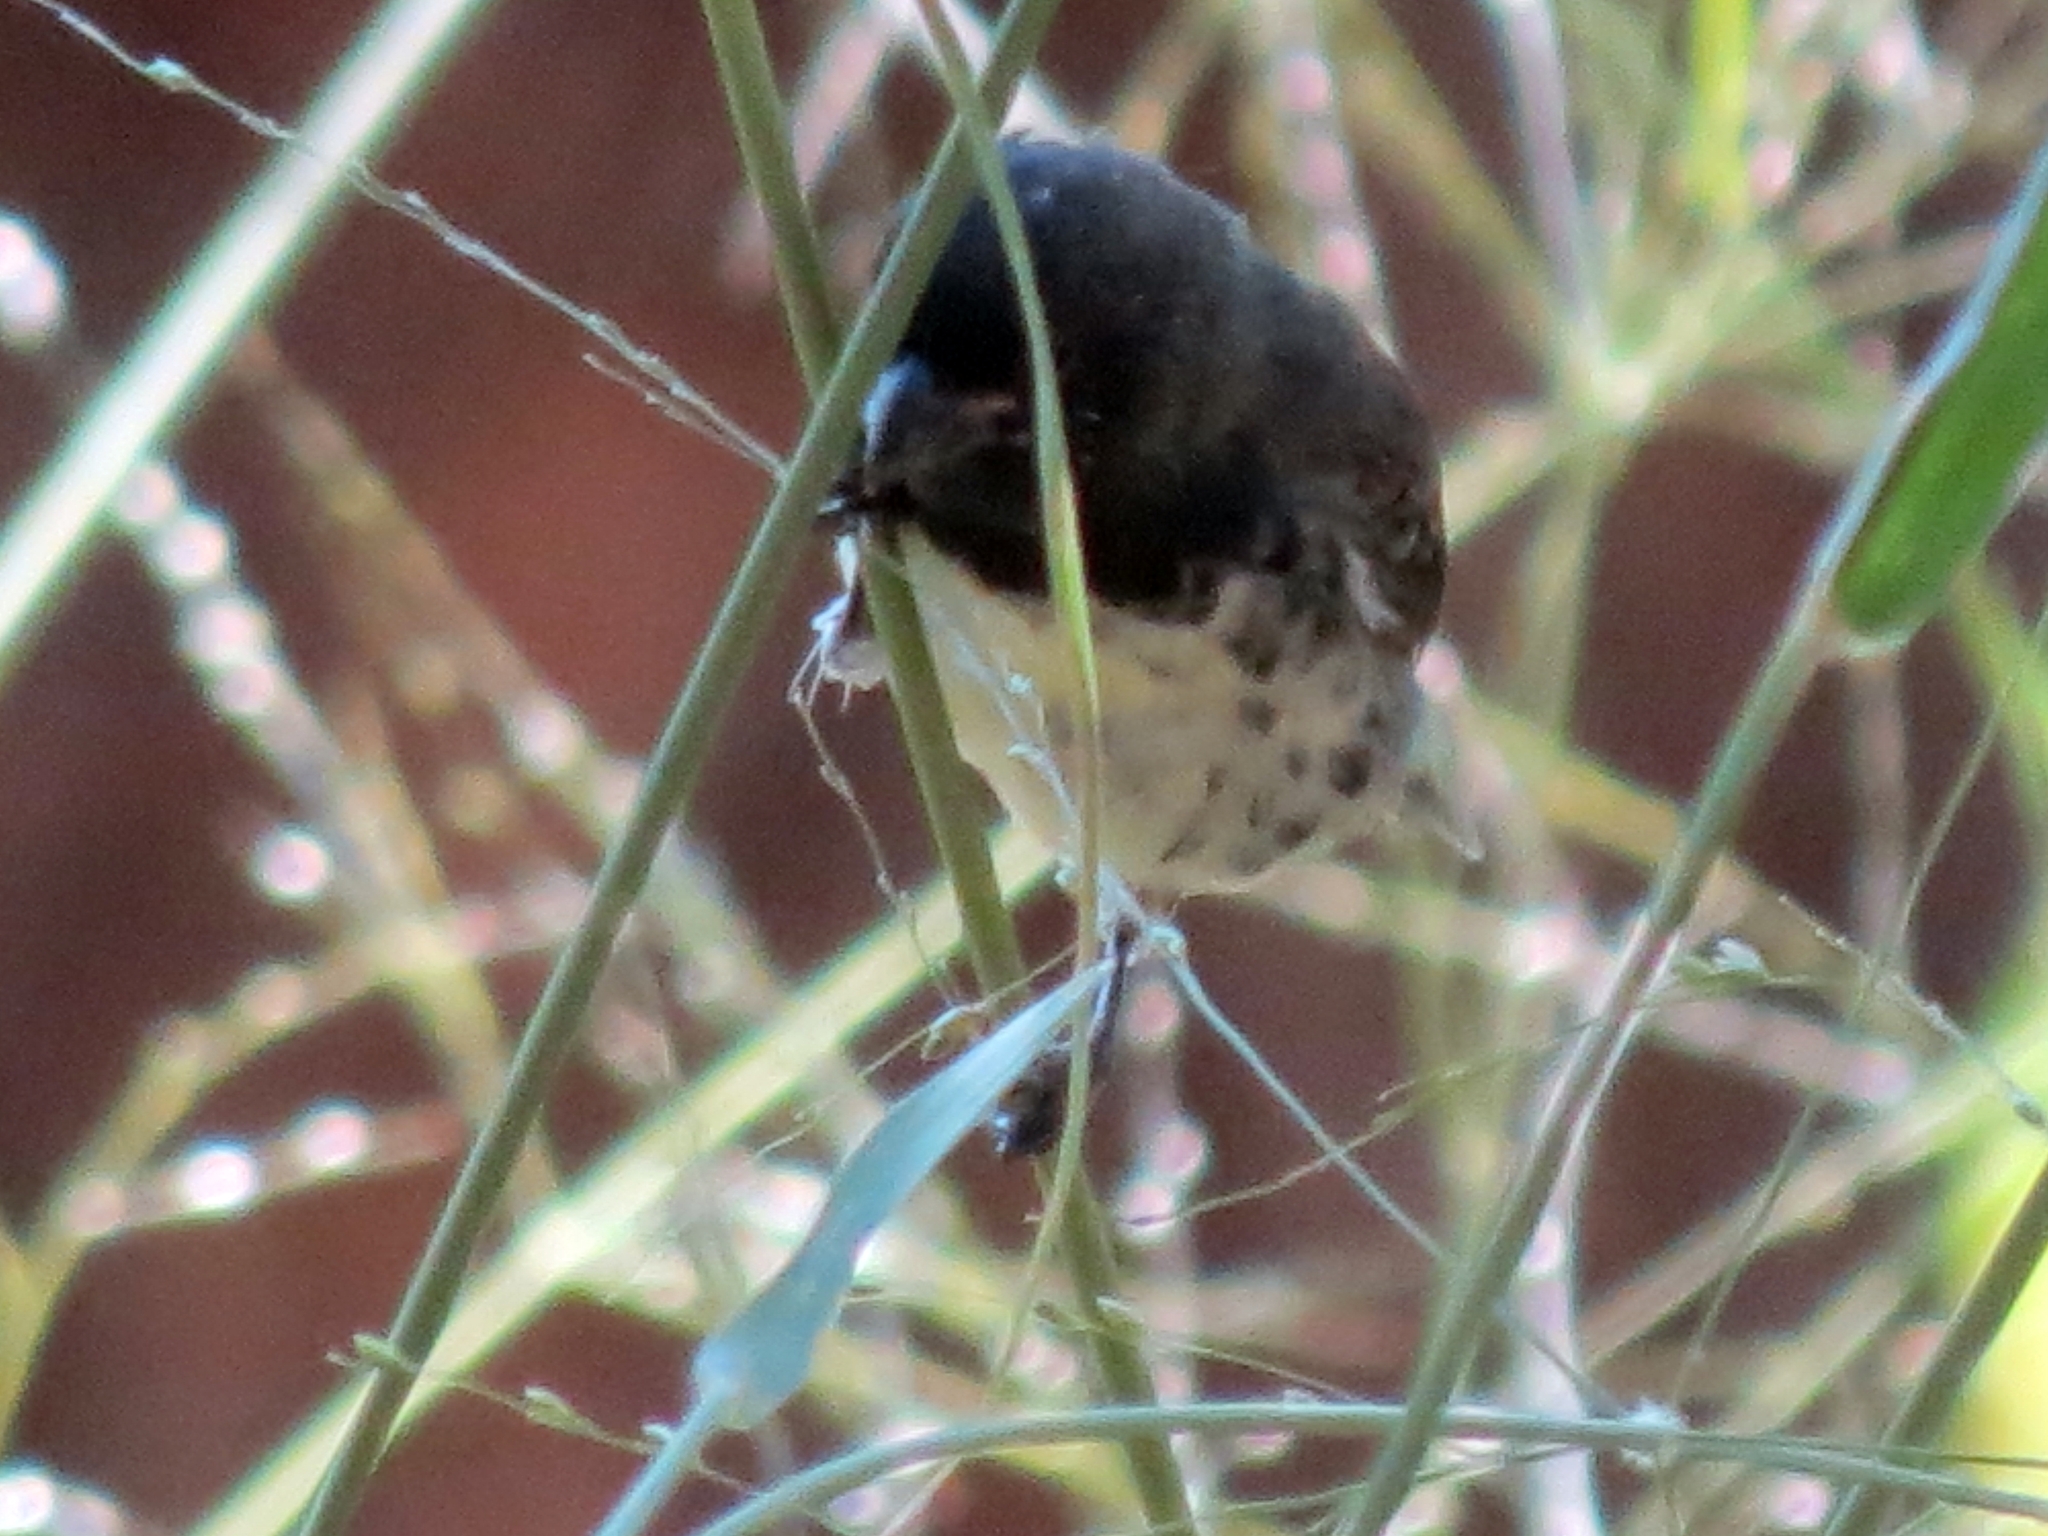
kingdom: Animalia
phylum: Chordata
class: Aves
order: Passeriformes
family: Thraupidae
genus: Sporophila
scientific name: Sporophila nigricollis
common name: Yellow-bellied seedeater
